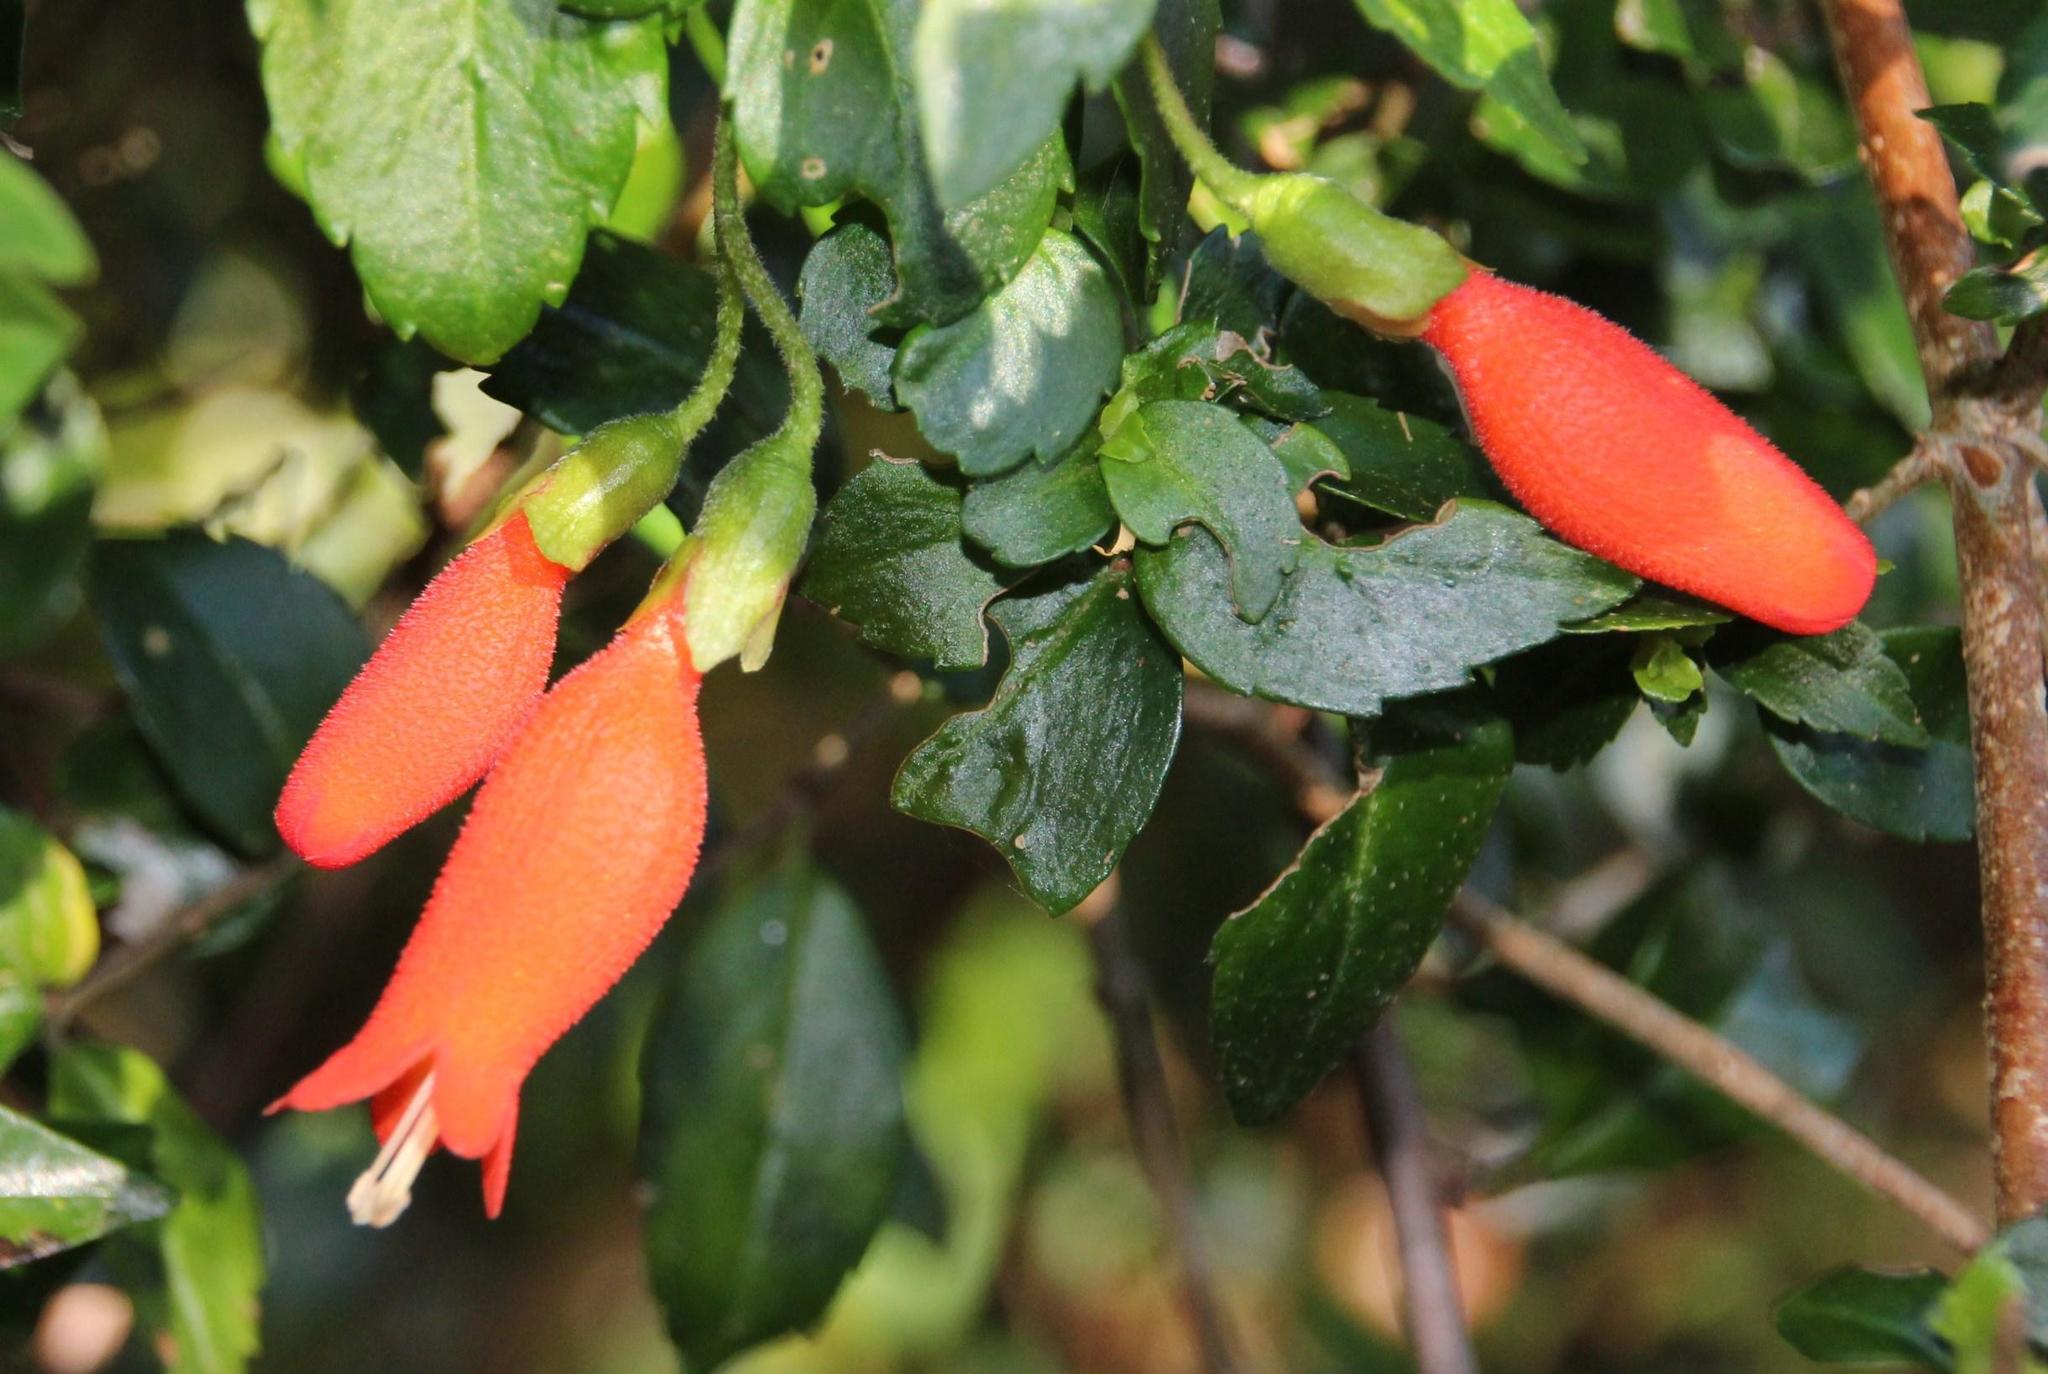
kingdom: Plantae
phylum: Tracheophyta
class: Magnoliopsida
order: Lamiales
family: Gesneriaceae
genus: Mitraria
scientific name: Mitraria coccinea
